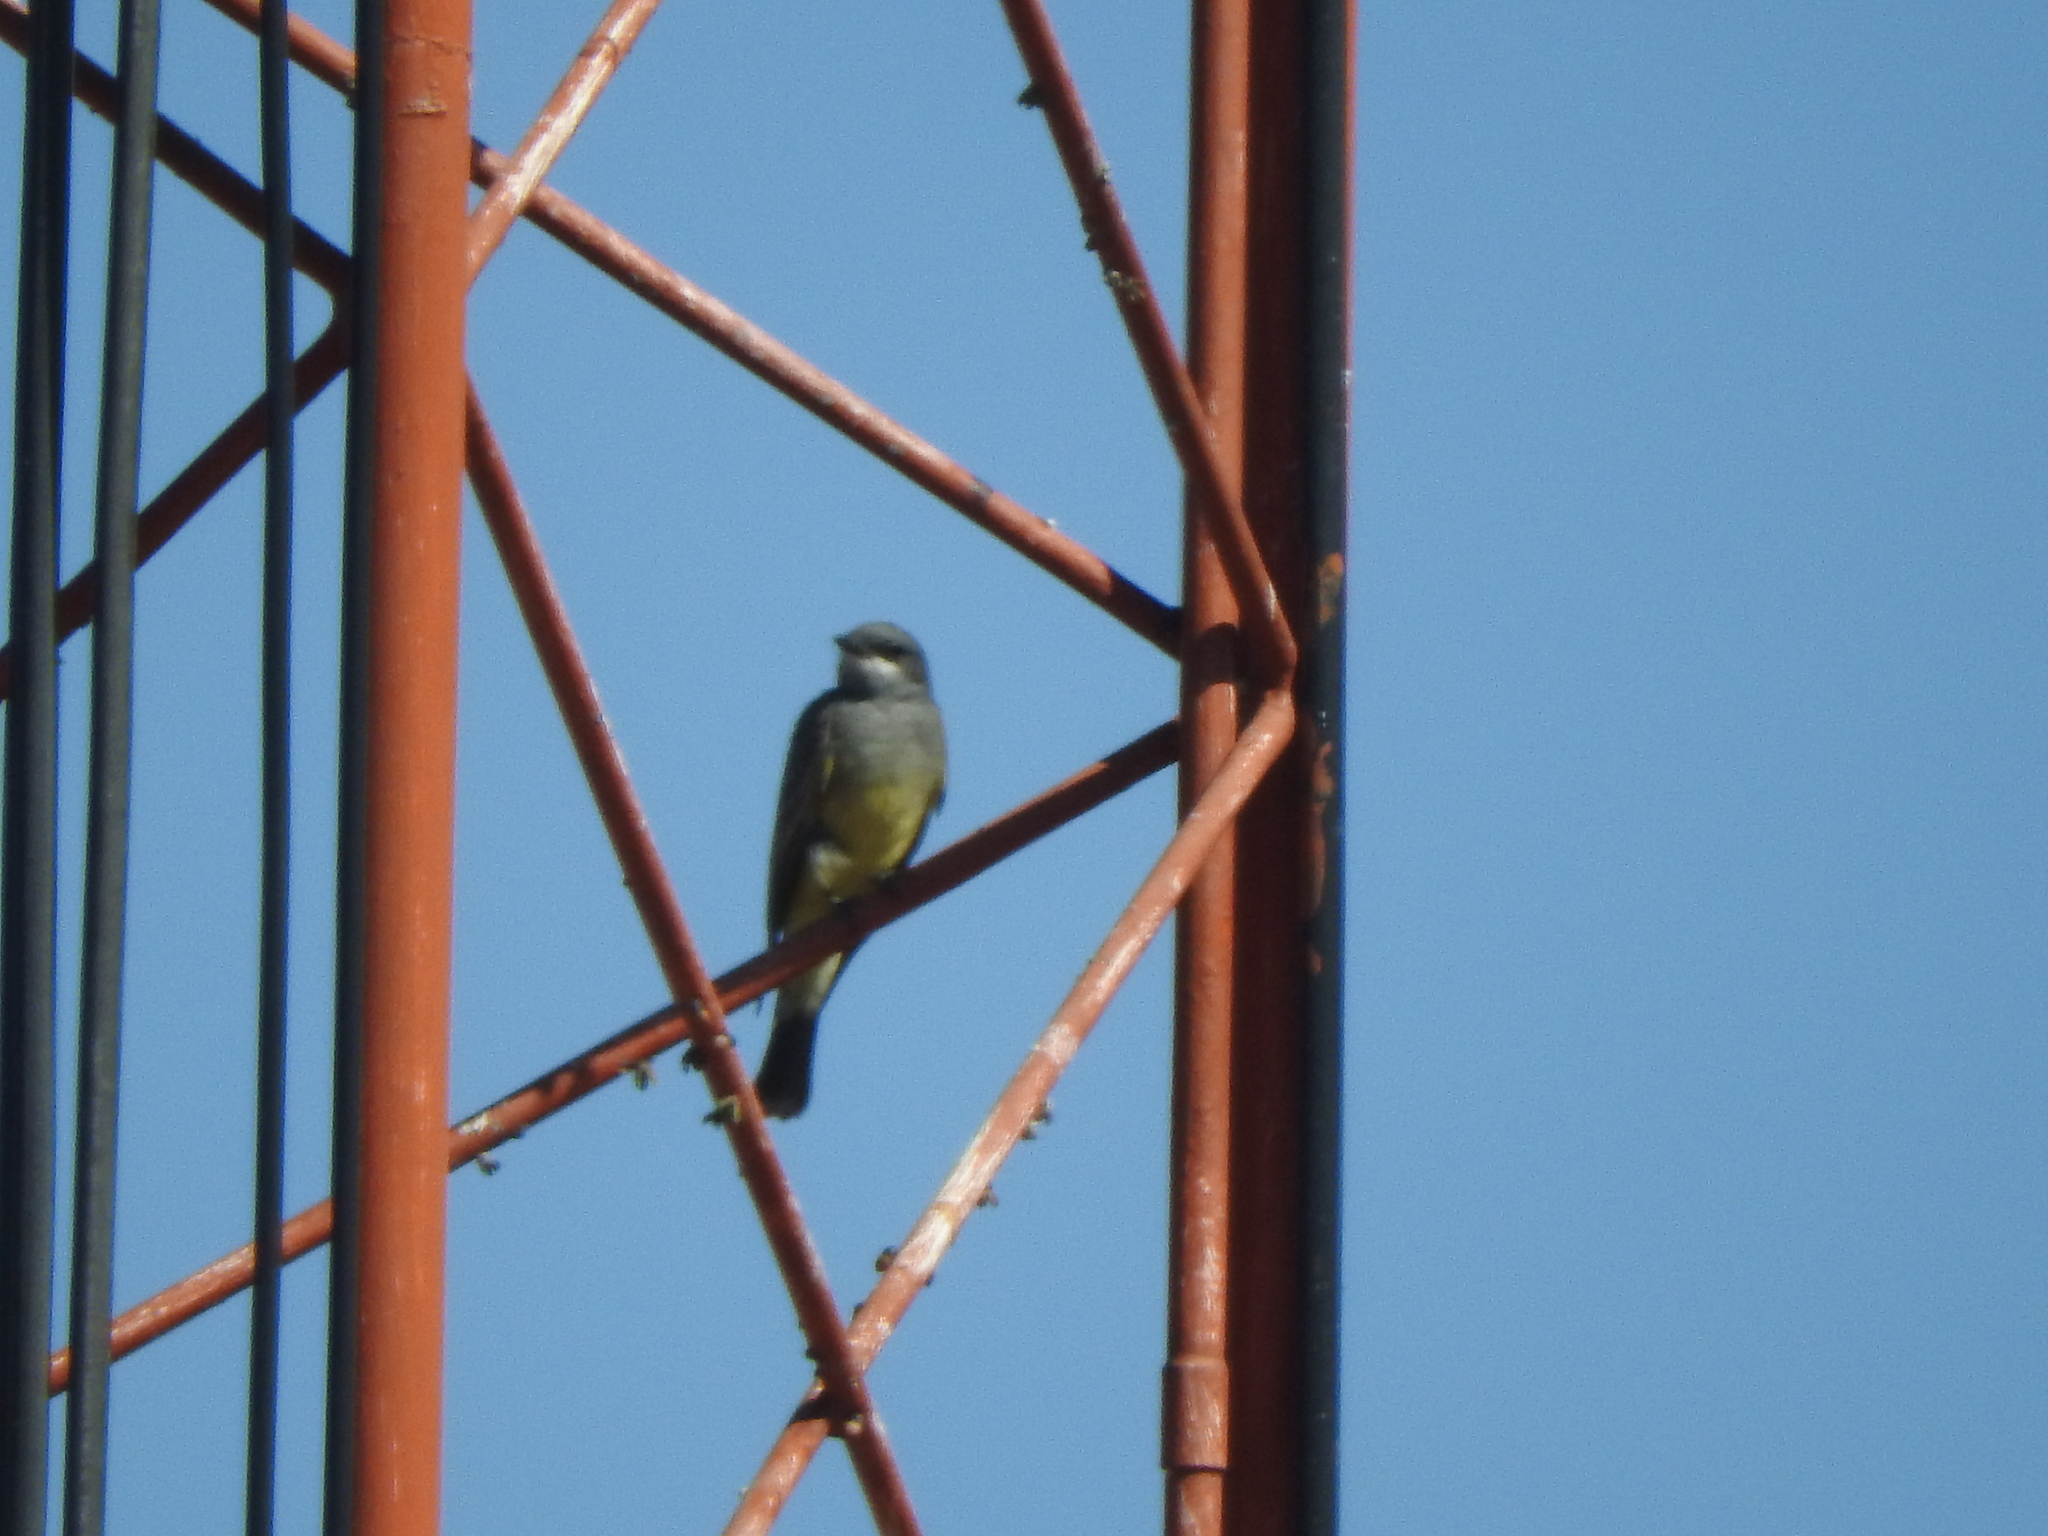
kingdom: Animalia
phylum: Chordata
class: Aves
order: Passeriformes
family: Tyrannidae
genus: Tyrannus
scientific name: Tyrannus vociferans
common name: Cassin's kingbird
